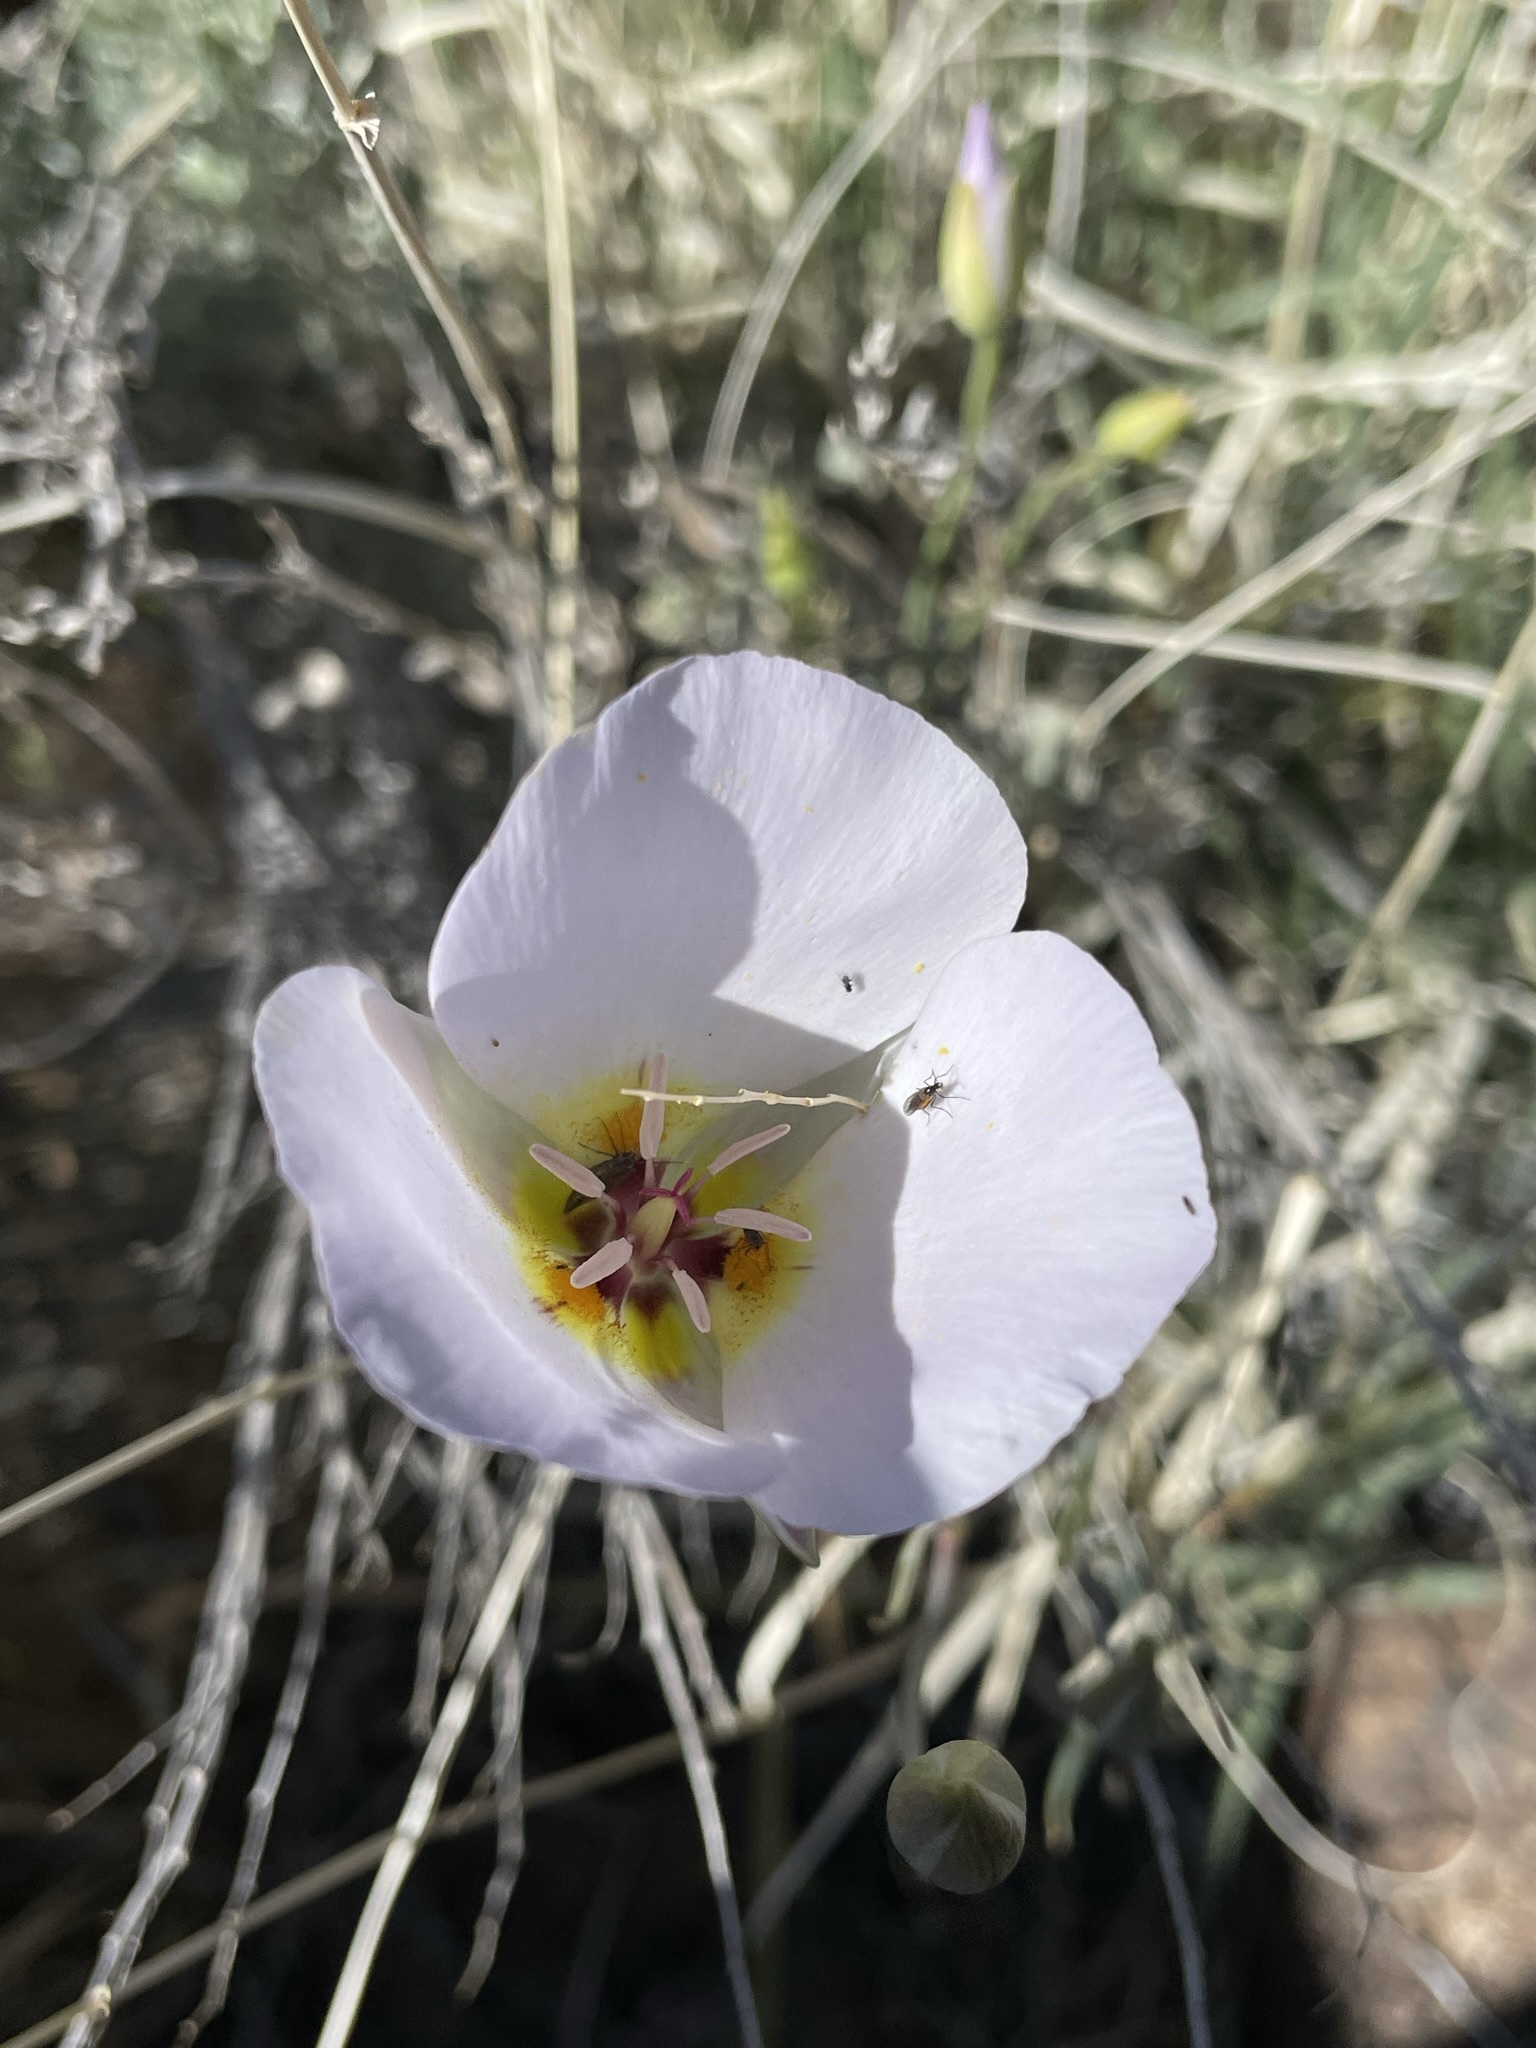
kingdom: Plantae
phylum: Tracheophyta
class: Liliopsida
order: Liliales
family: Liliaceae
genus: Calochortus
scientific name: Calochortus flexuosus
